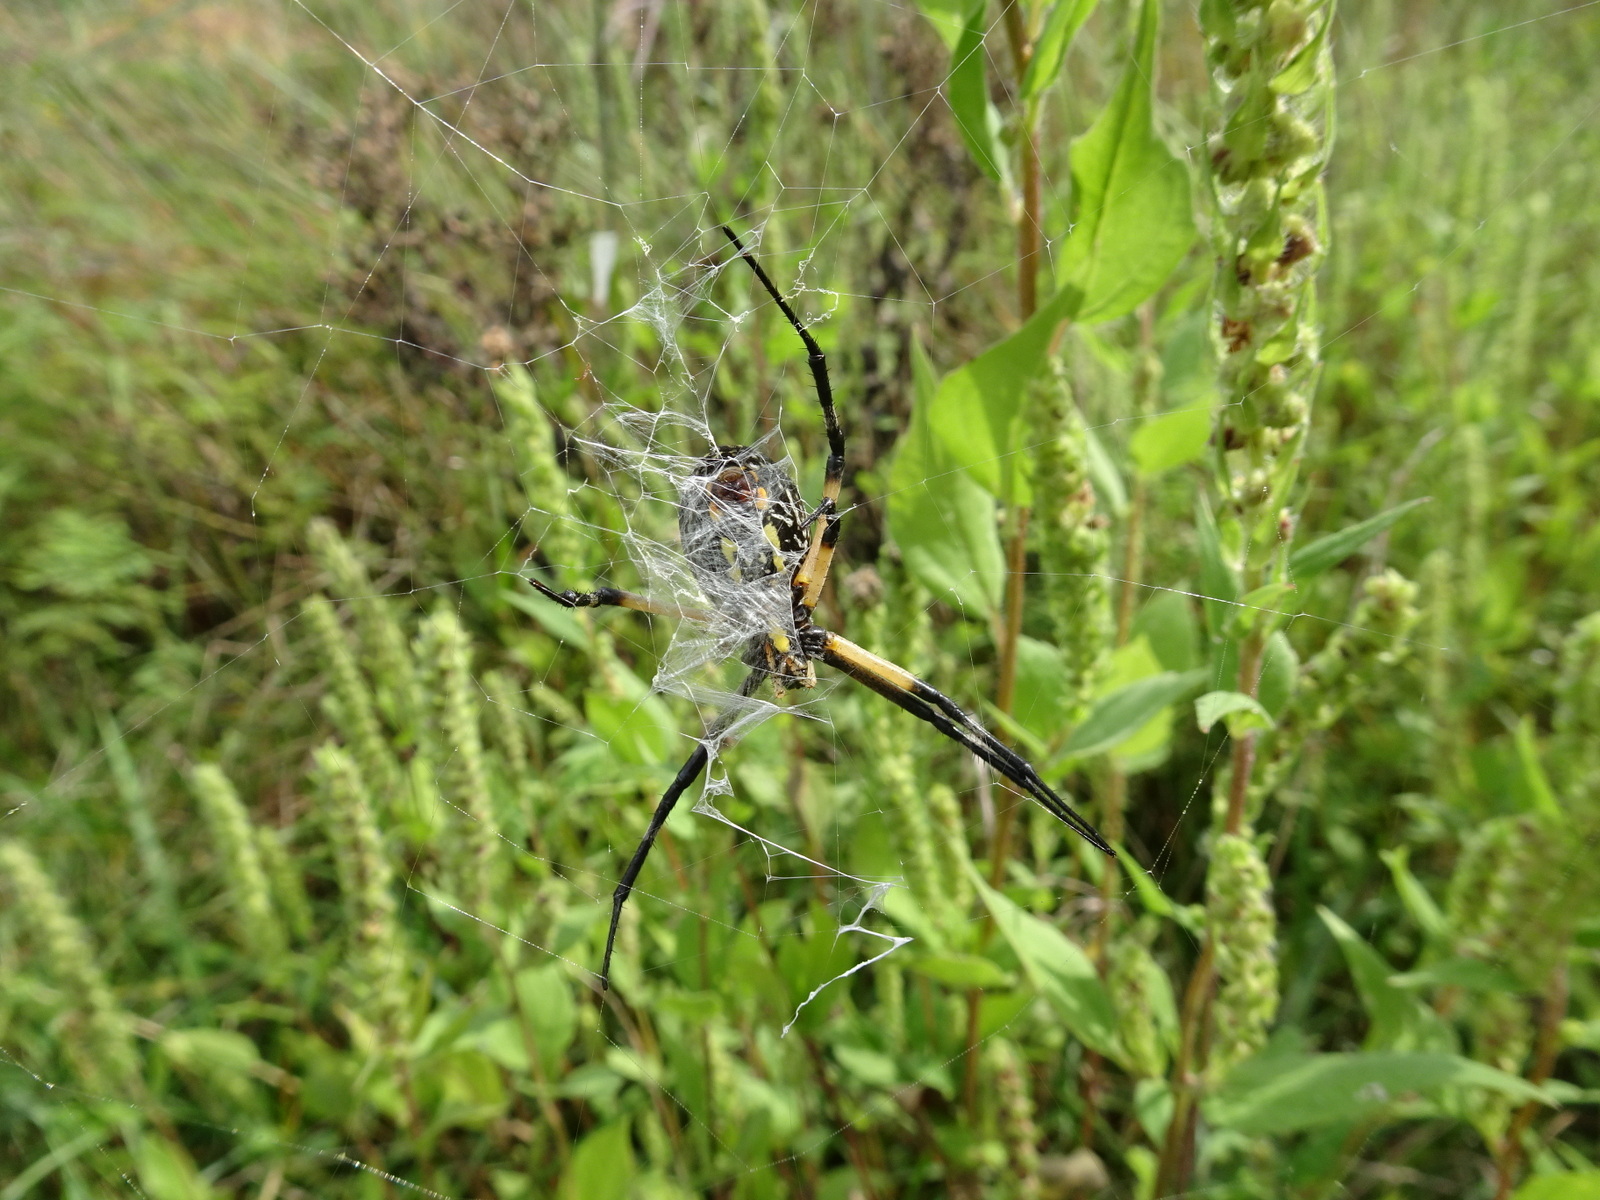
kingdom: Animalia
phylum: Arthropoda
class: Arachnida
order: Araneae
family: Araneidae
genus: Argiope
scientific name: Argiope aurantia
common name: Orb weavers
